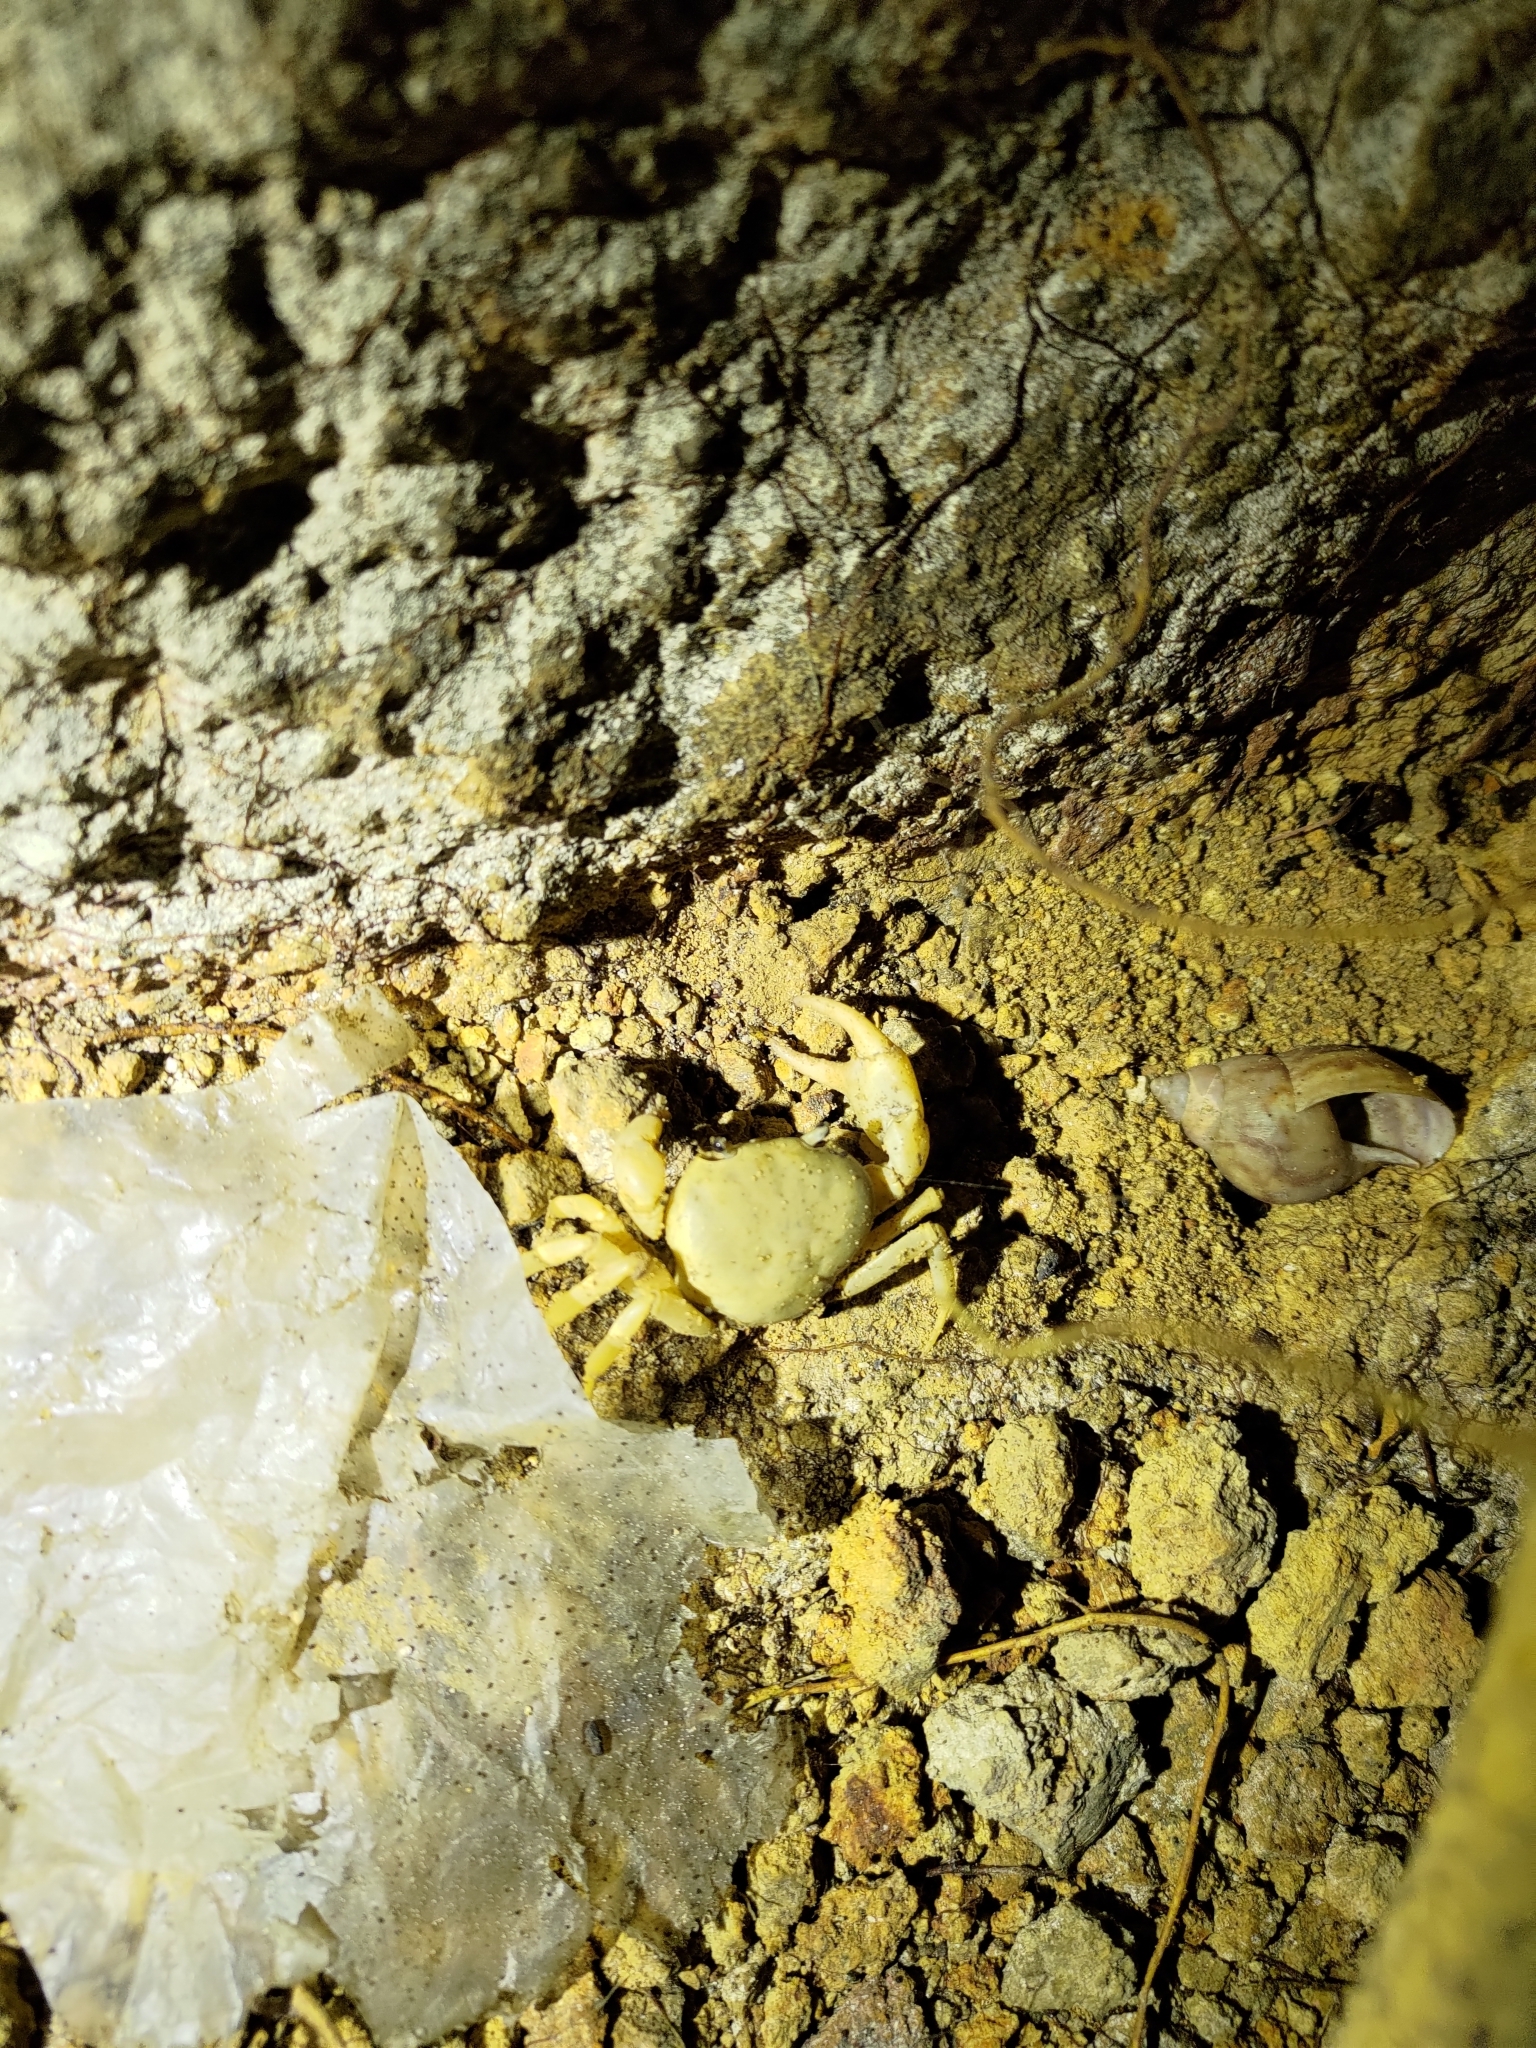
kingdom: Animalia
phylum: Arthropoda
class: Malacostraca
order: Decapoda
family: Potamidae
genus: Geothelphusa
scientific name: Geothelphusa ancylophallus
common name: Yuen chak thick crab
